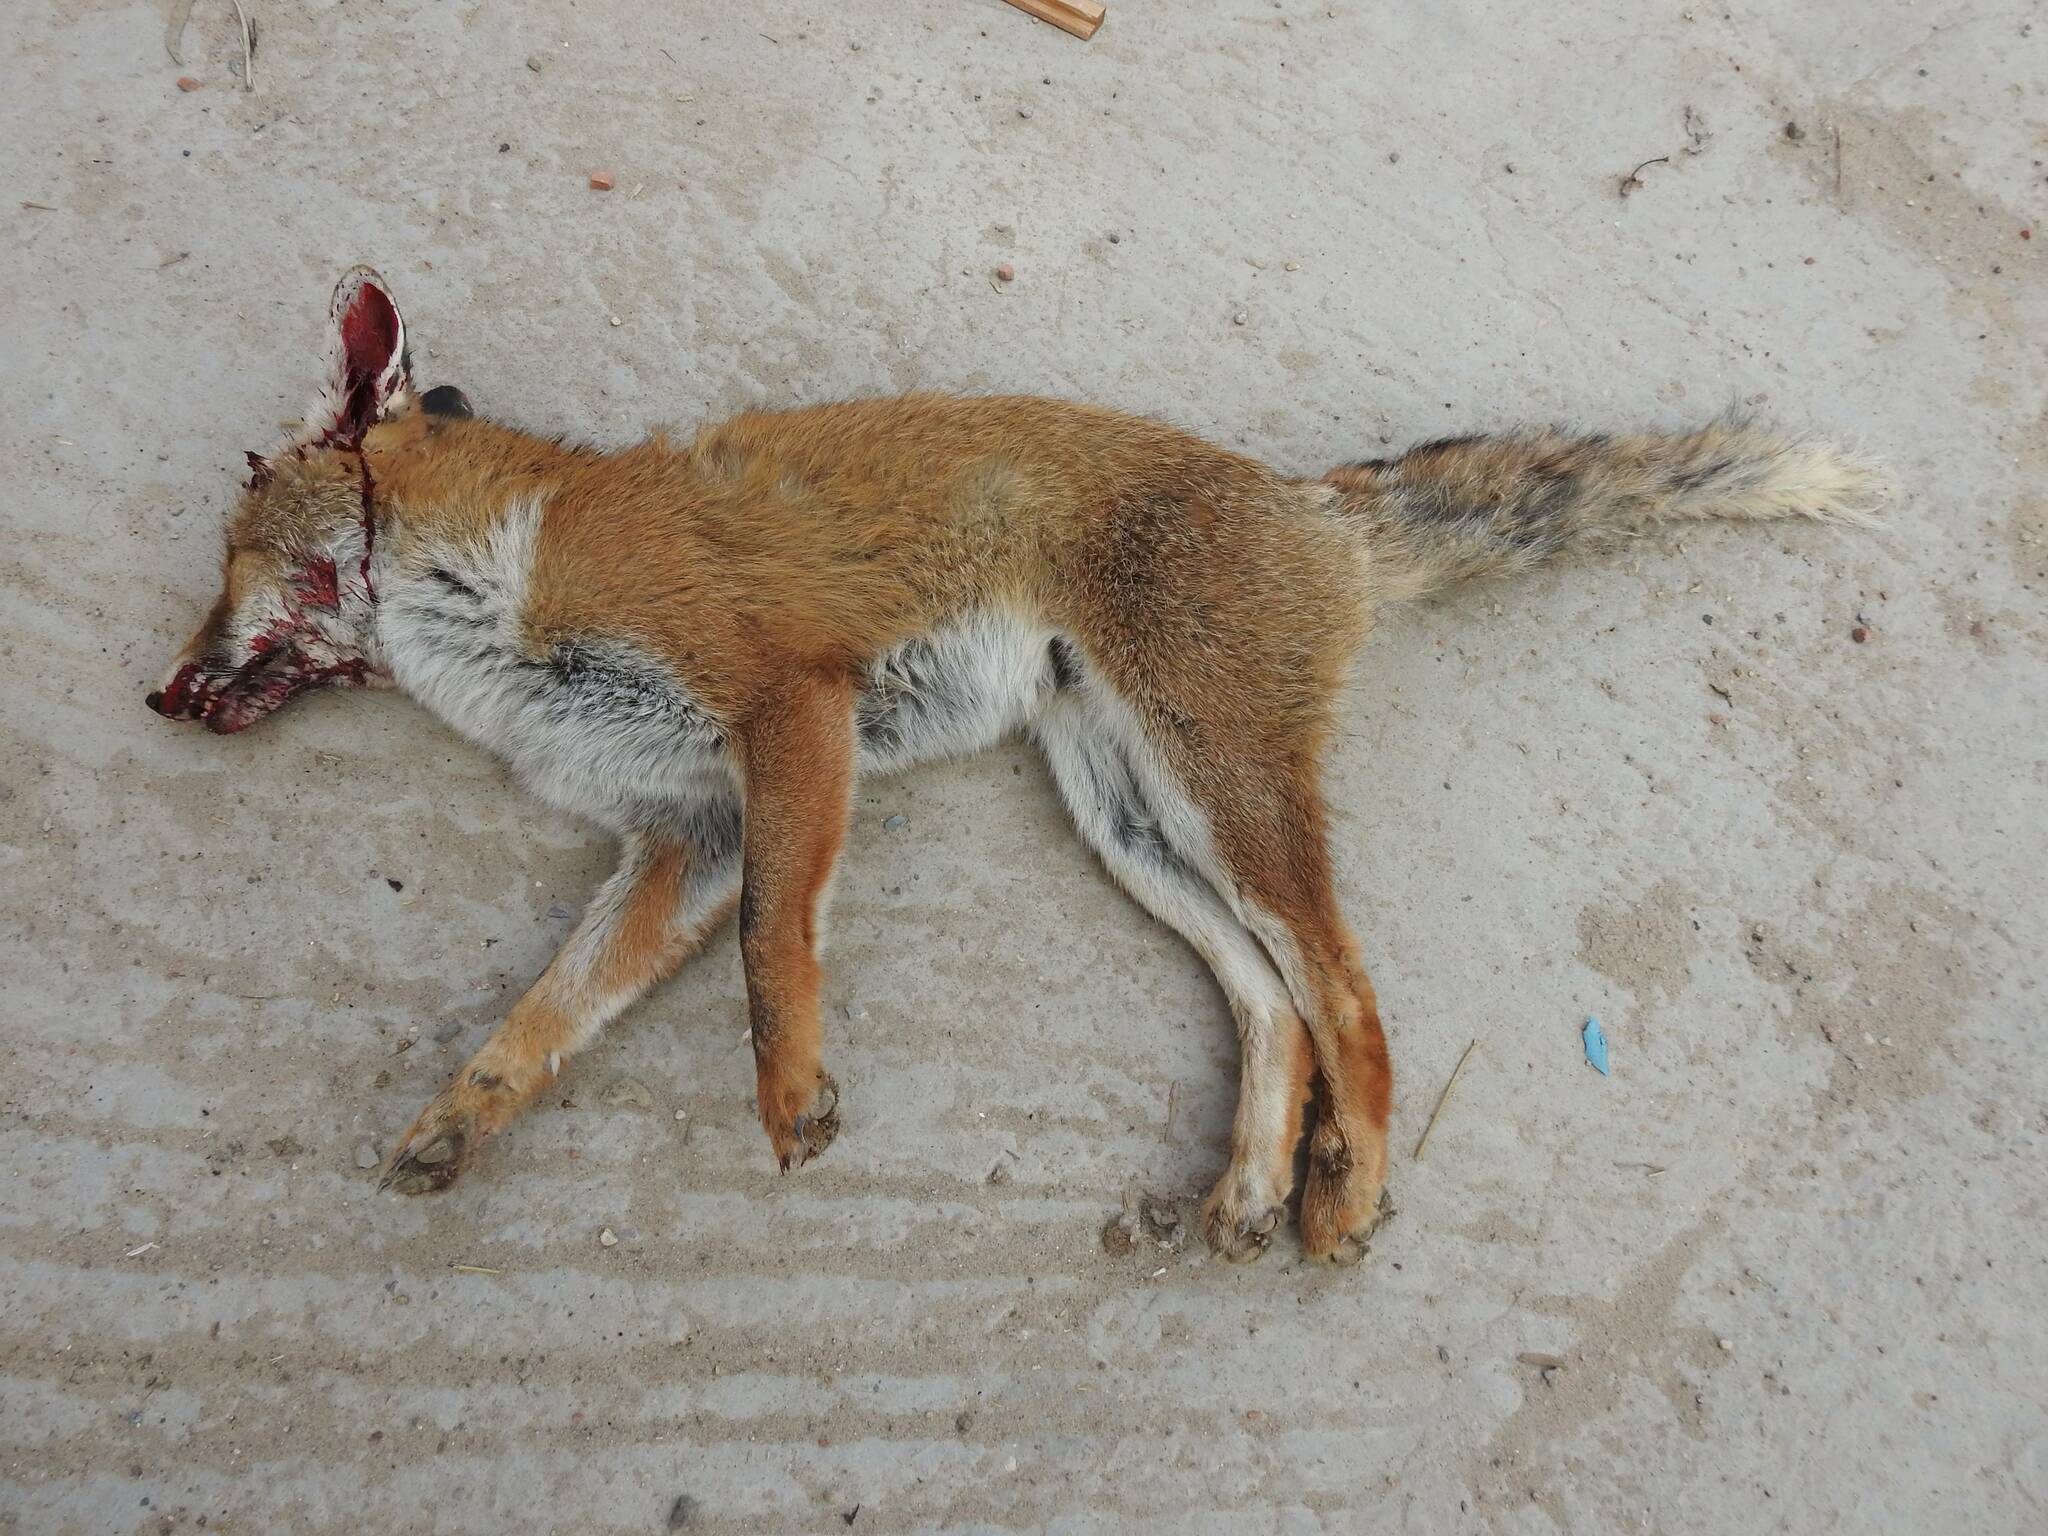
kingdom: Animalia
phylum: Chordata
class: Mammalia
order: Carnivora
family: Canidae
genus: Vulpes
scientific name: Vulpes vulpes
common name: Red fox
